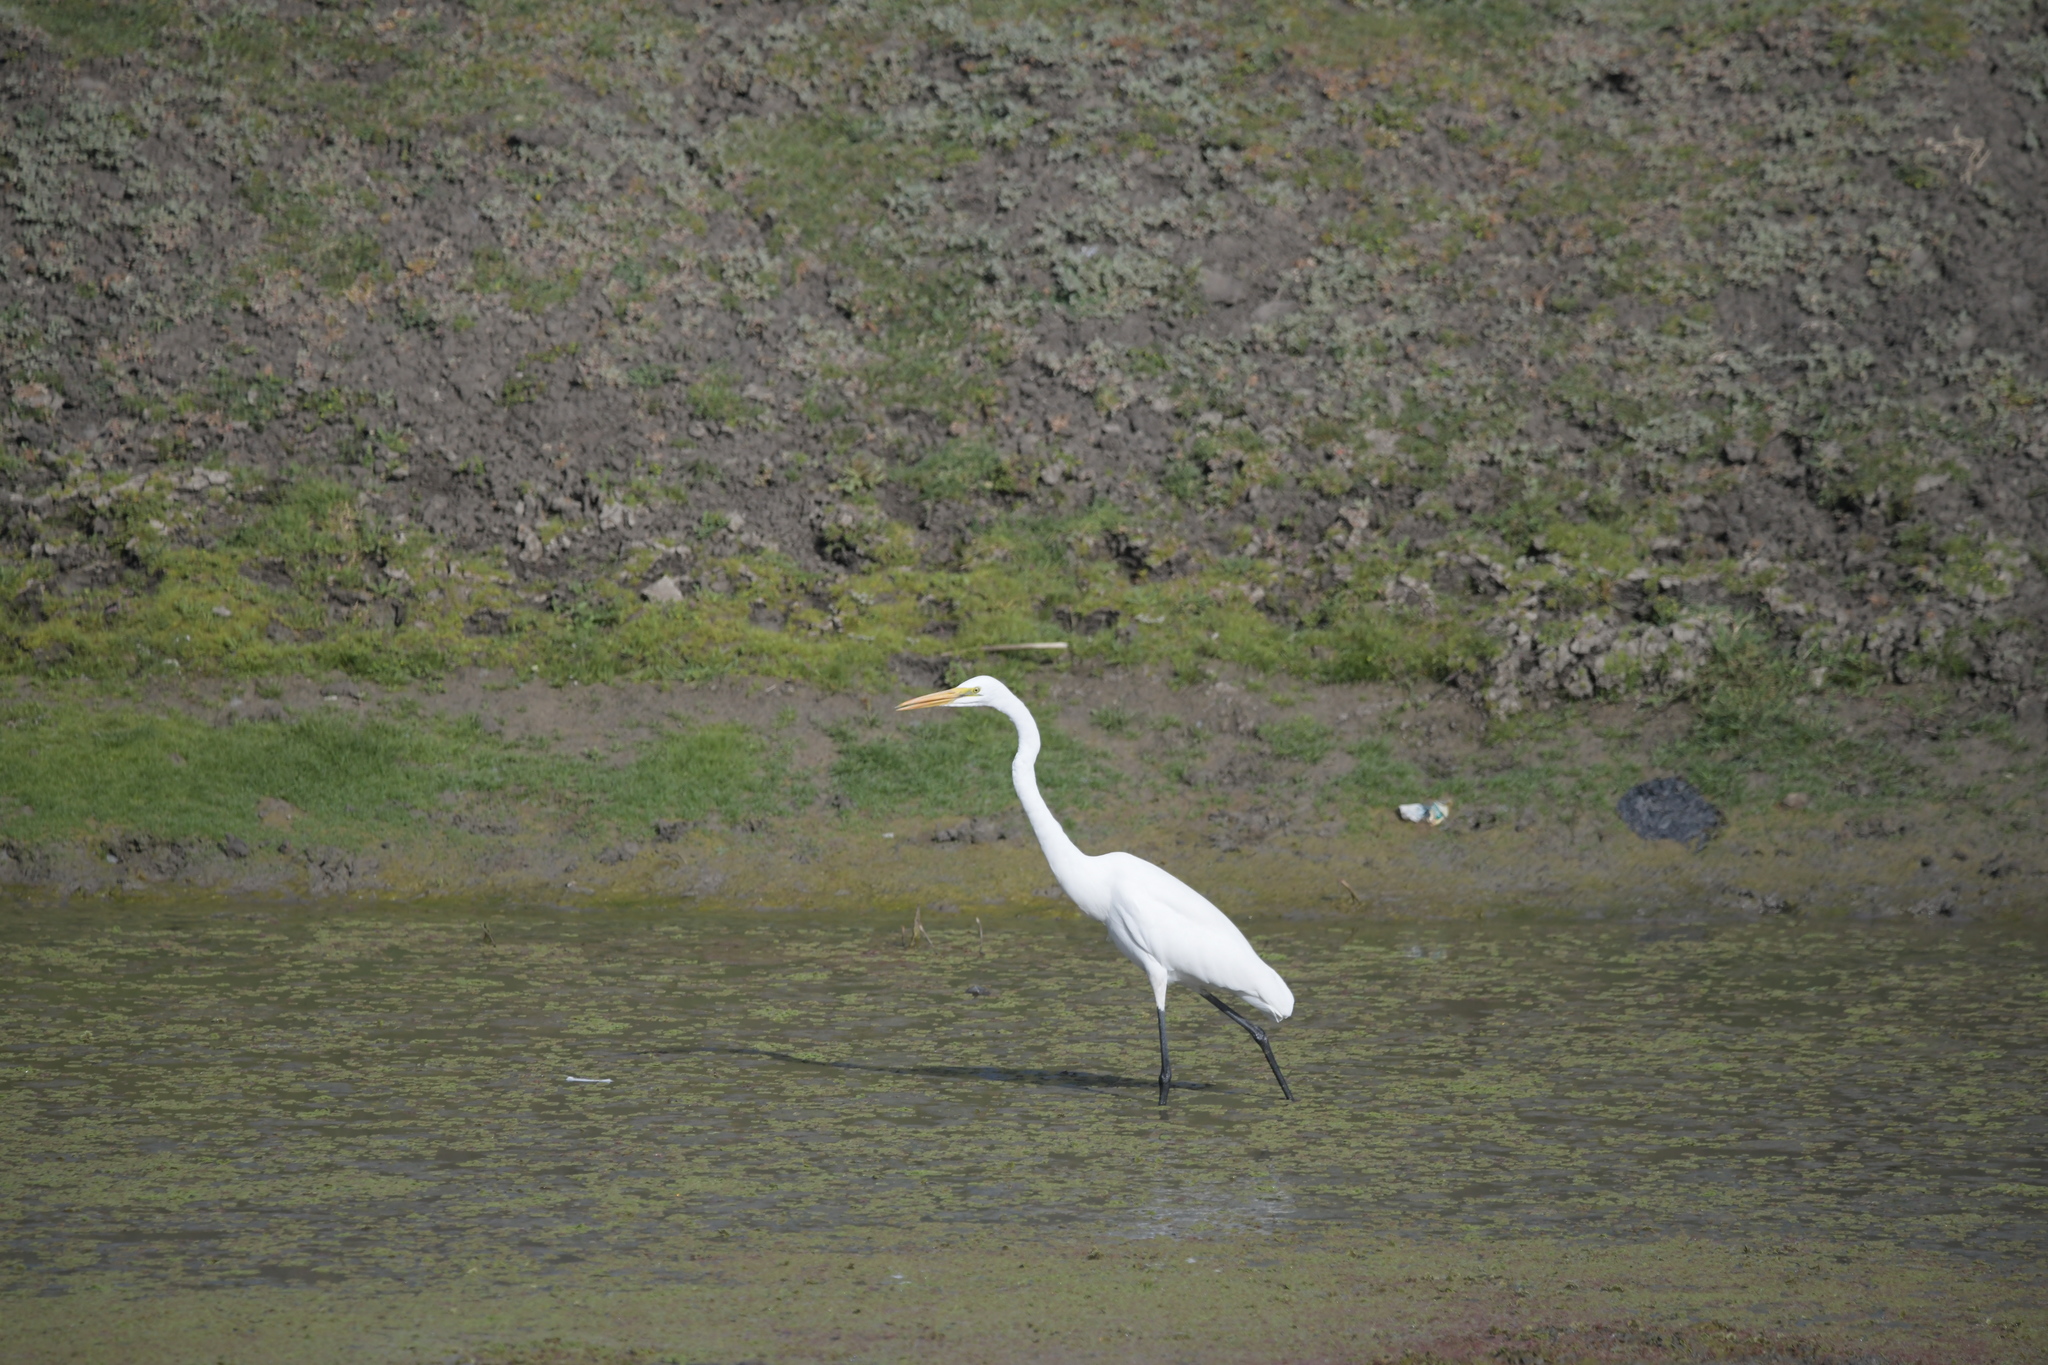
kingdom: Animalia
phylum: Chordata
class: Aves
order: Pelecaniformes
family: Ardeidae
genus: Ardea
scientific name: Ardea alba
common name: Great egret
